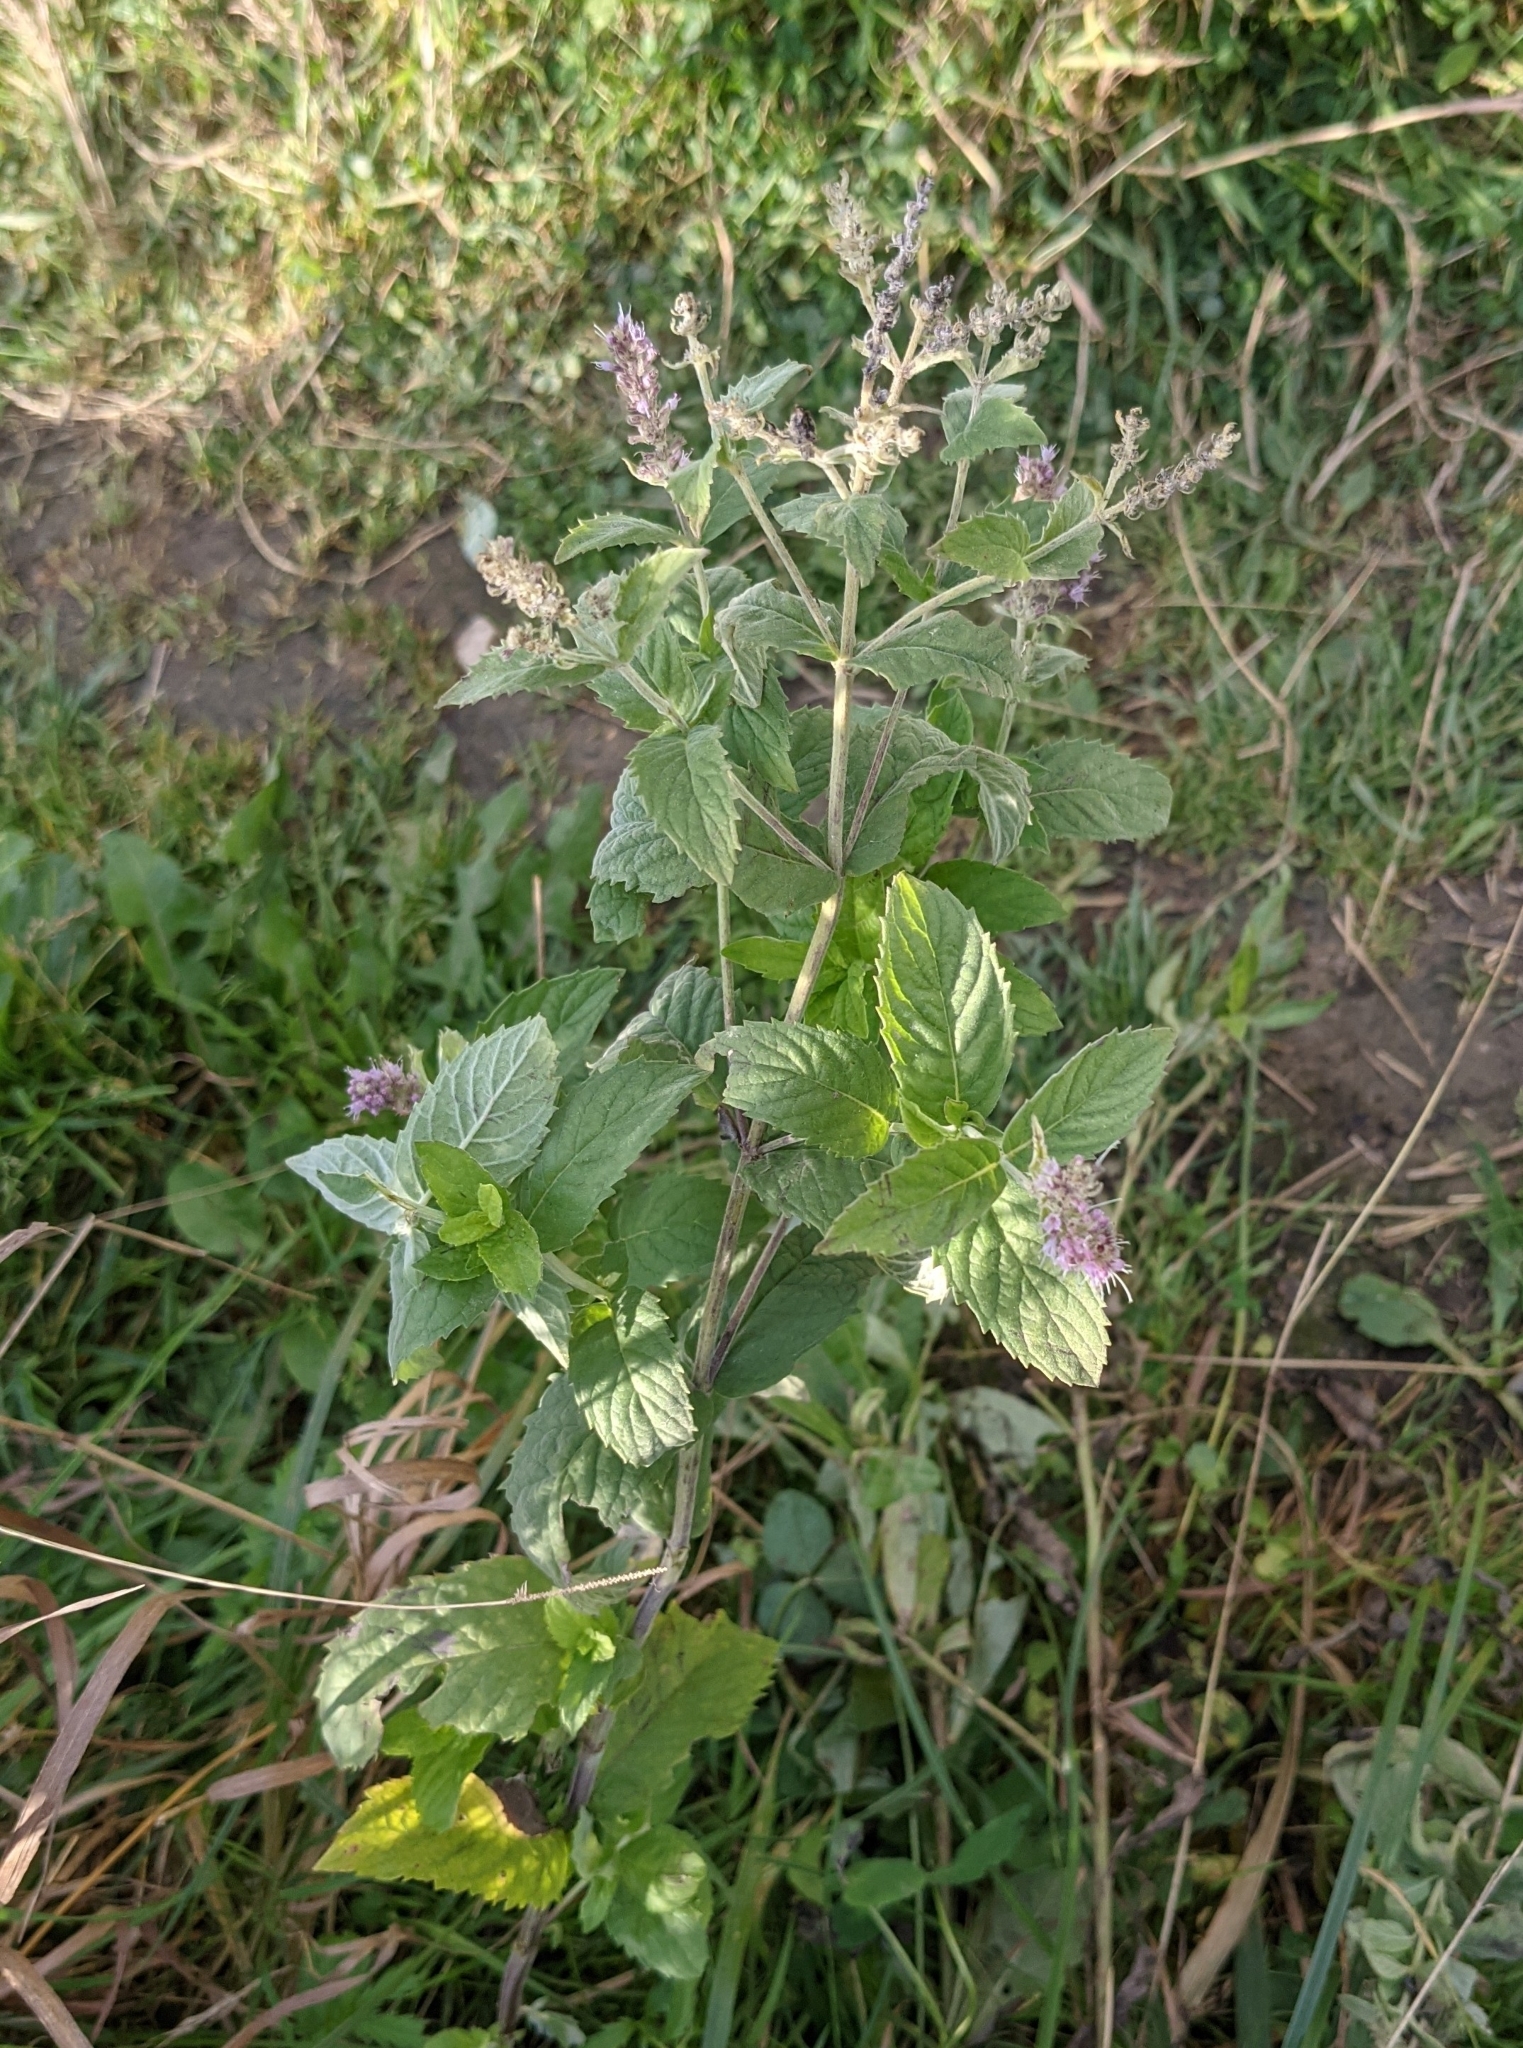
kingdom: Plantae
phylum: Tracheophyta
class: Magnoliopsida
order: Lamiales
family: Lamiaceae
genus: Mentha
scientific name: Mentha longifolia
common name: Horse mint
